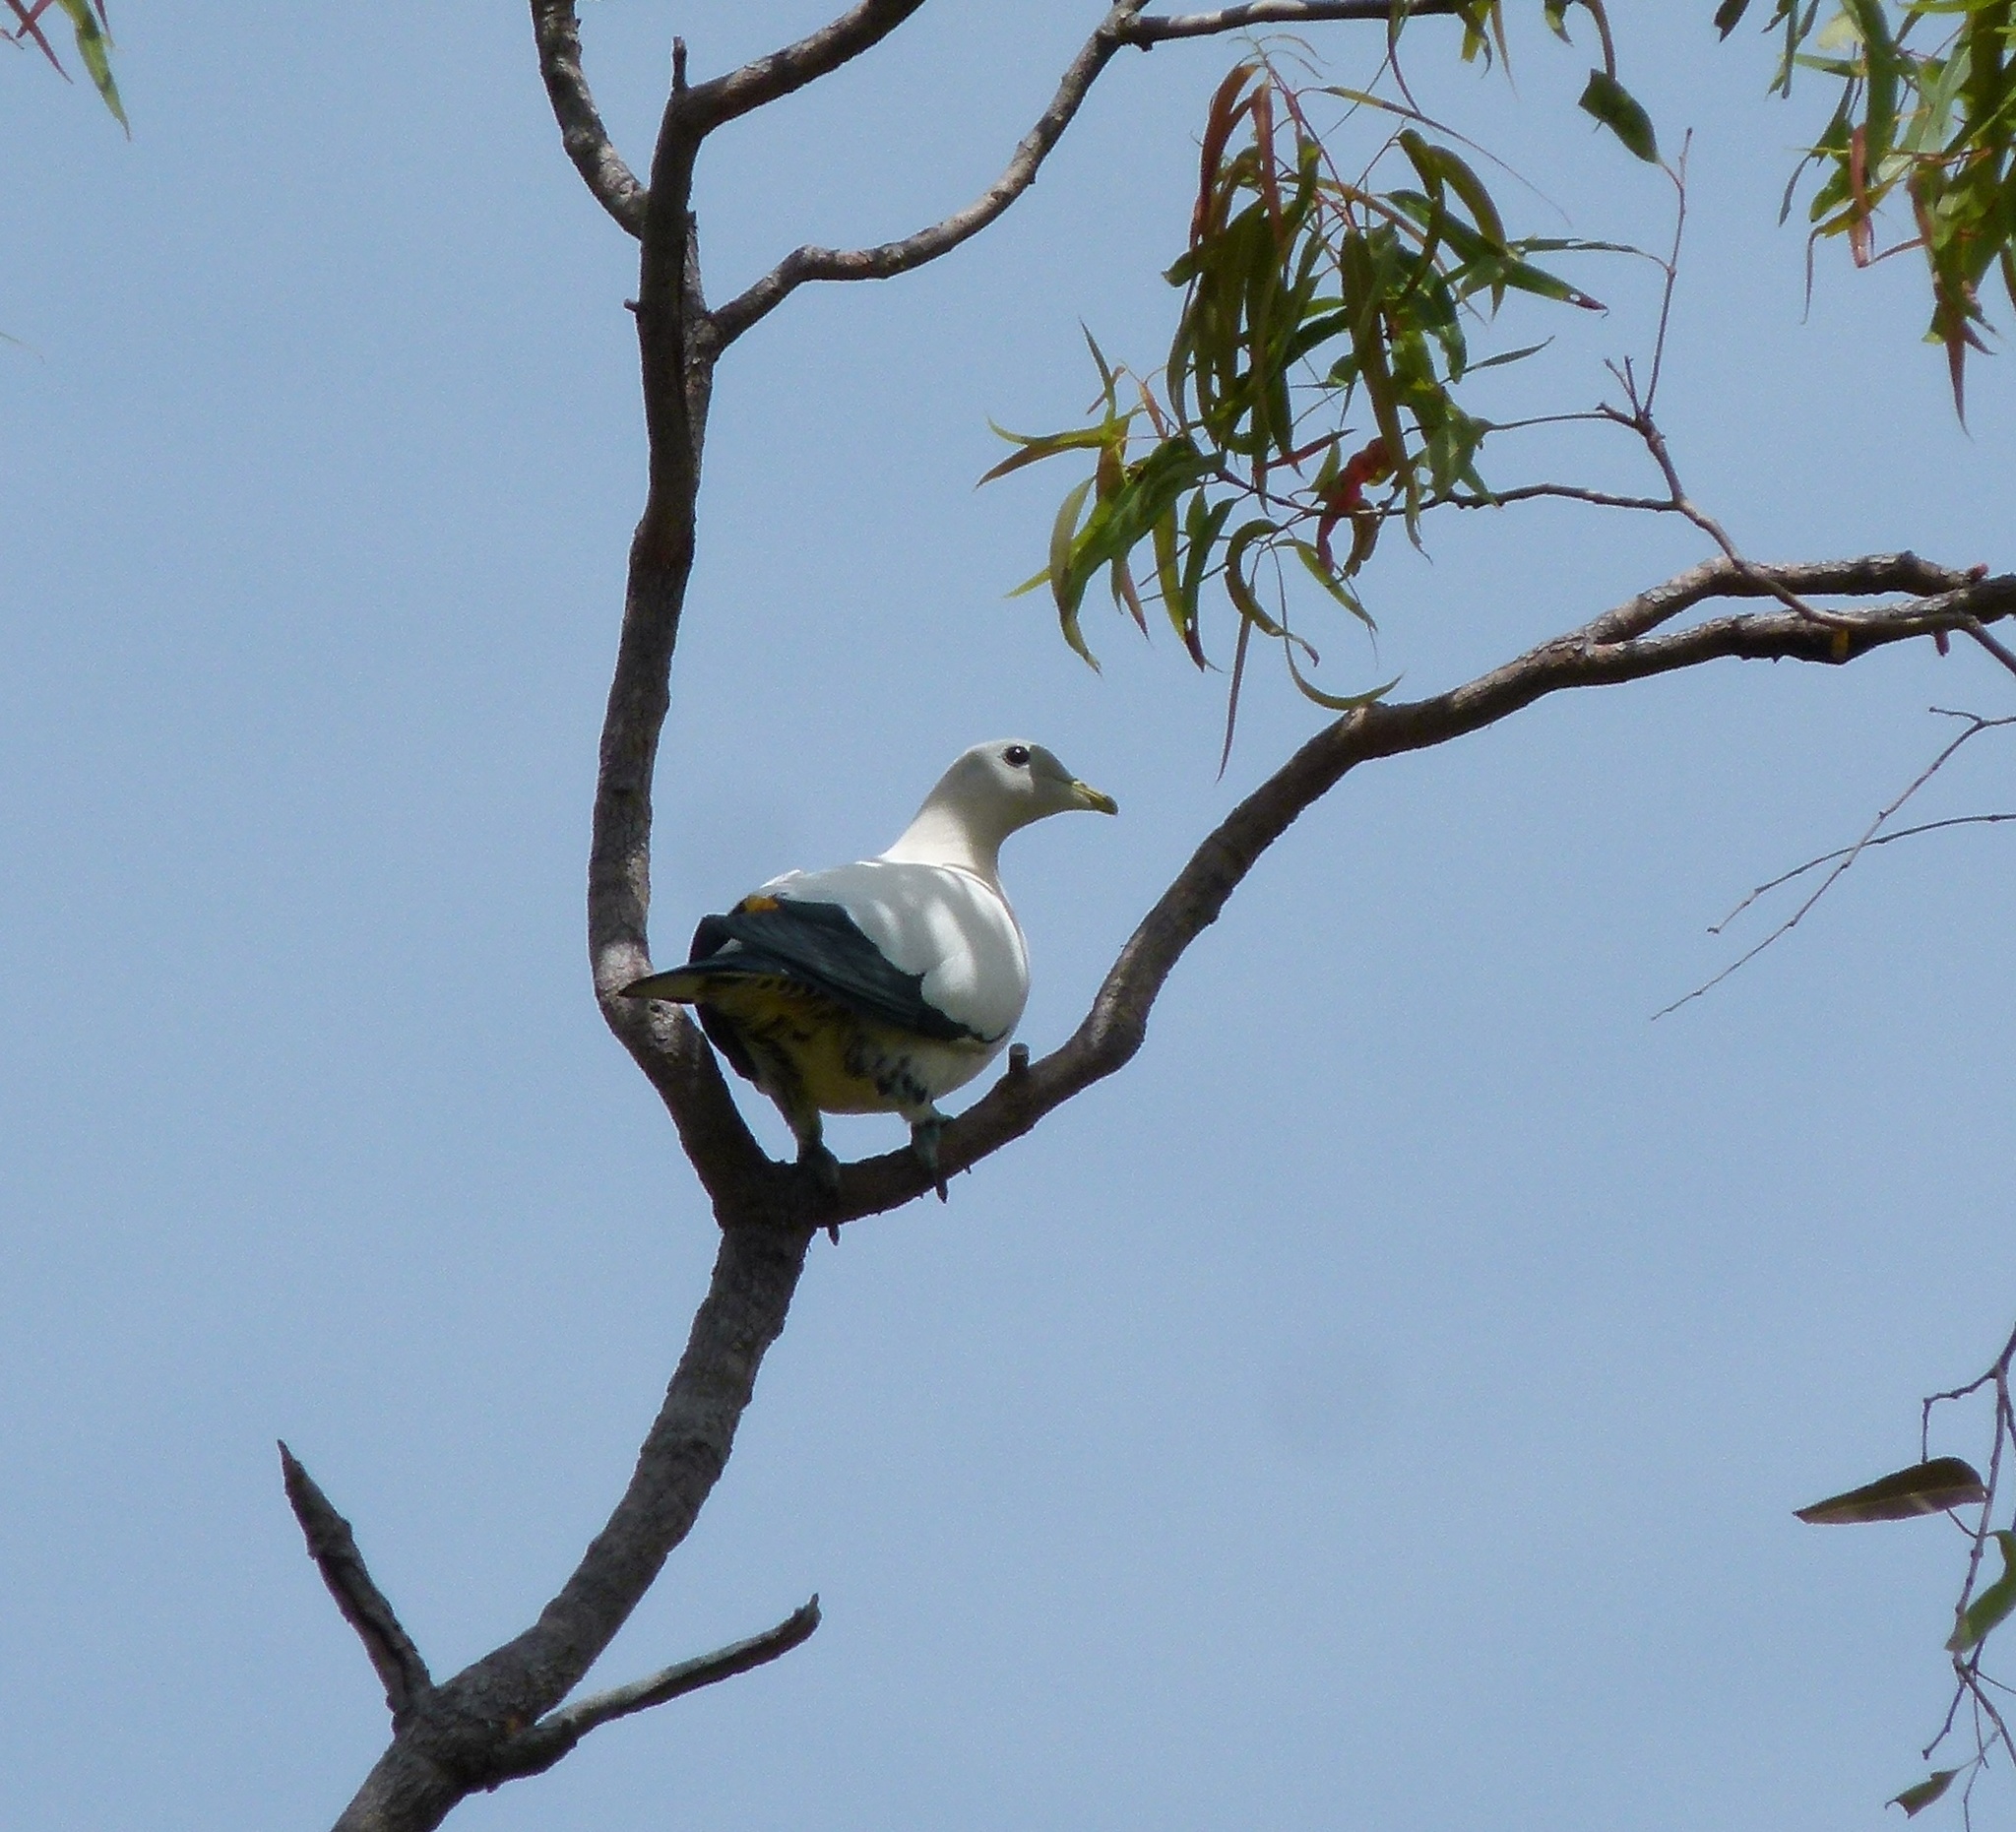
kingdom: Animalia
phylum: Chordata
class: Aves
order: Columbiformes
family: Columbidae
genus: Ducula
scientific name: Ducula spilorrhoa
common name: Torresian imperial pigeon
